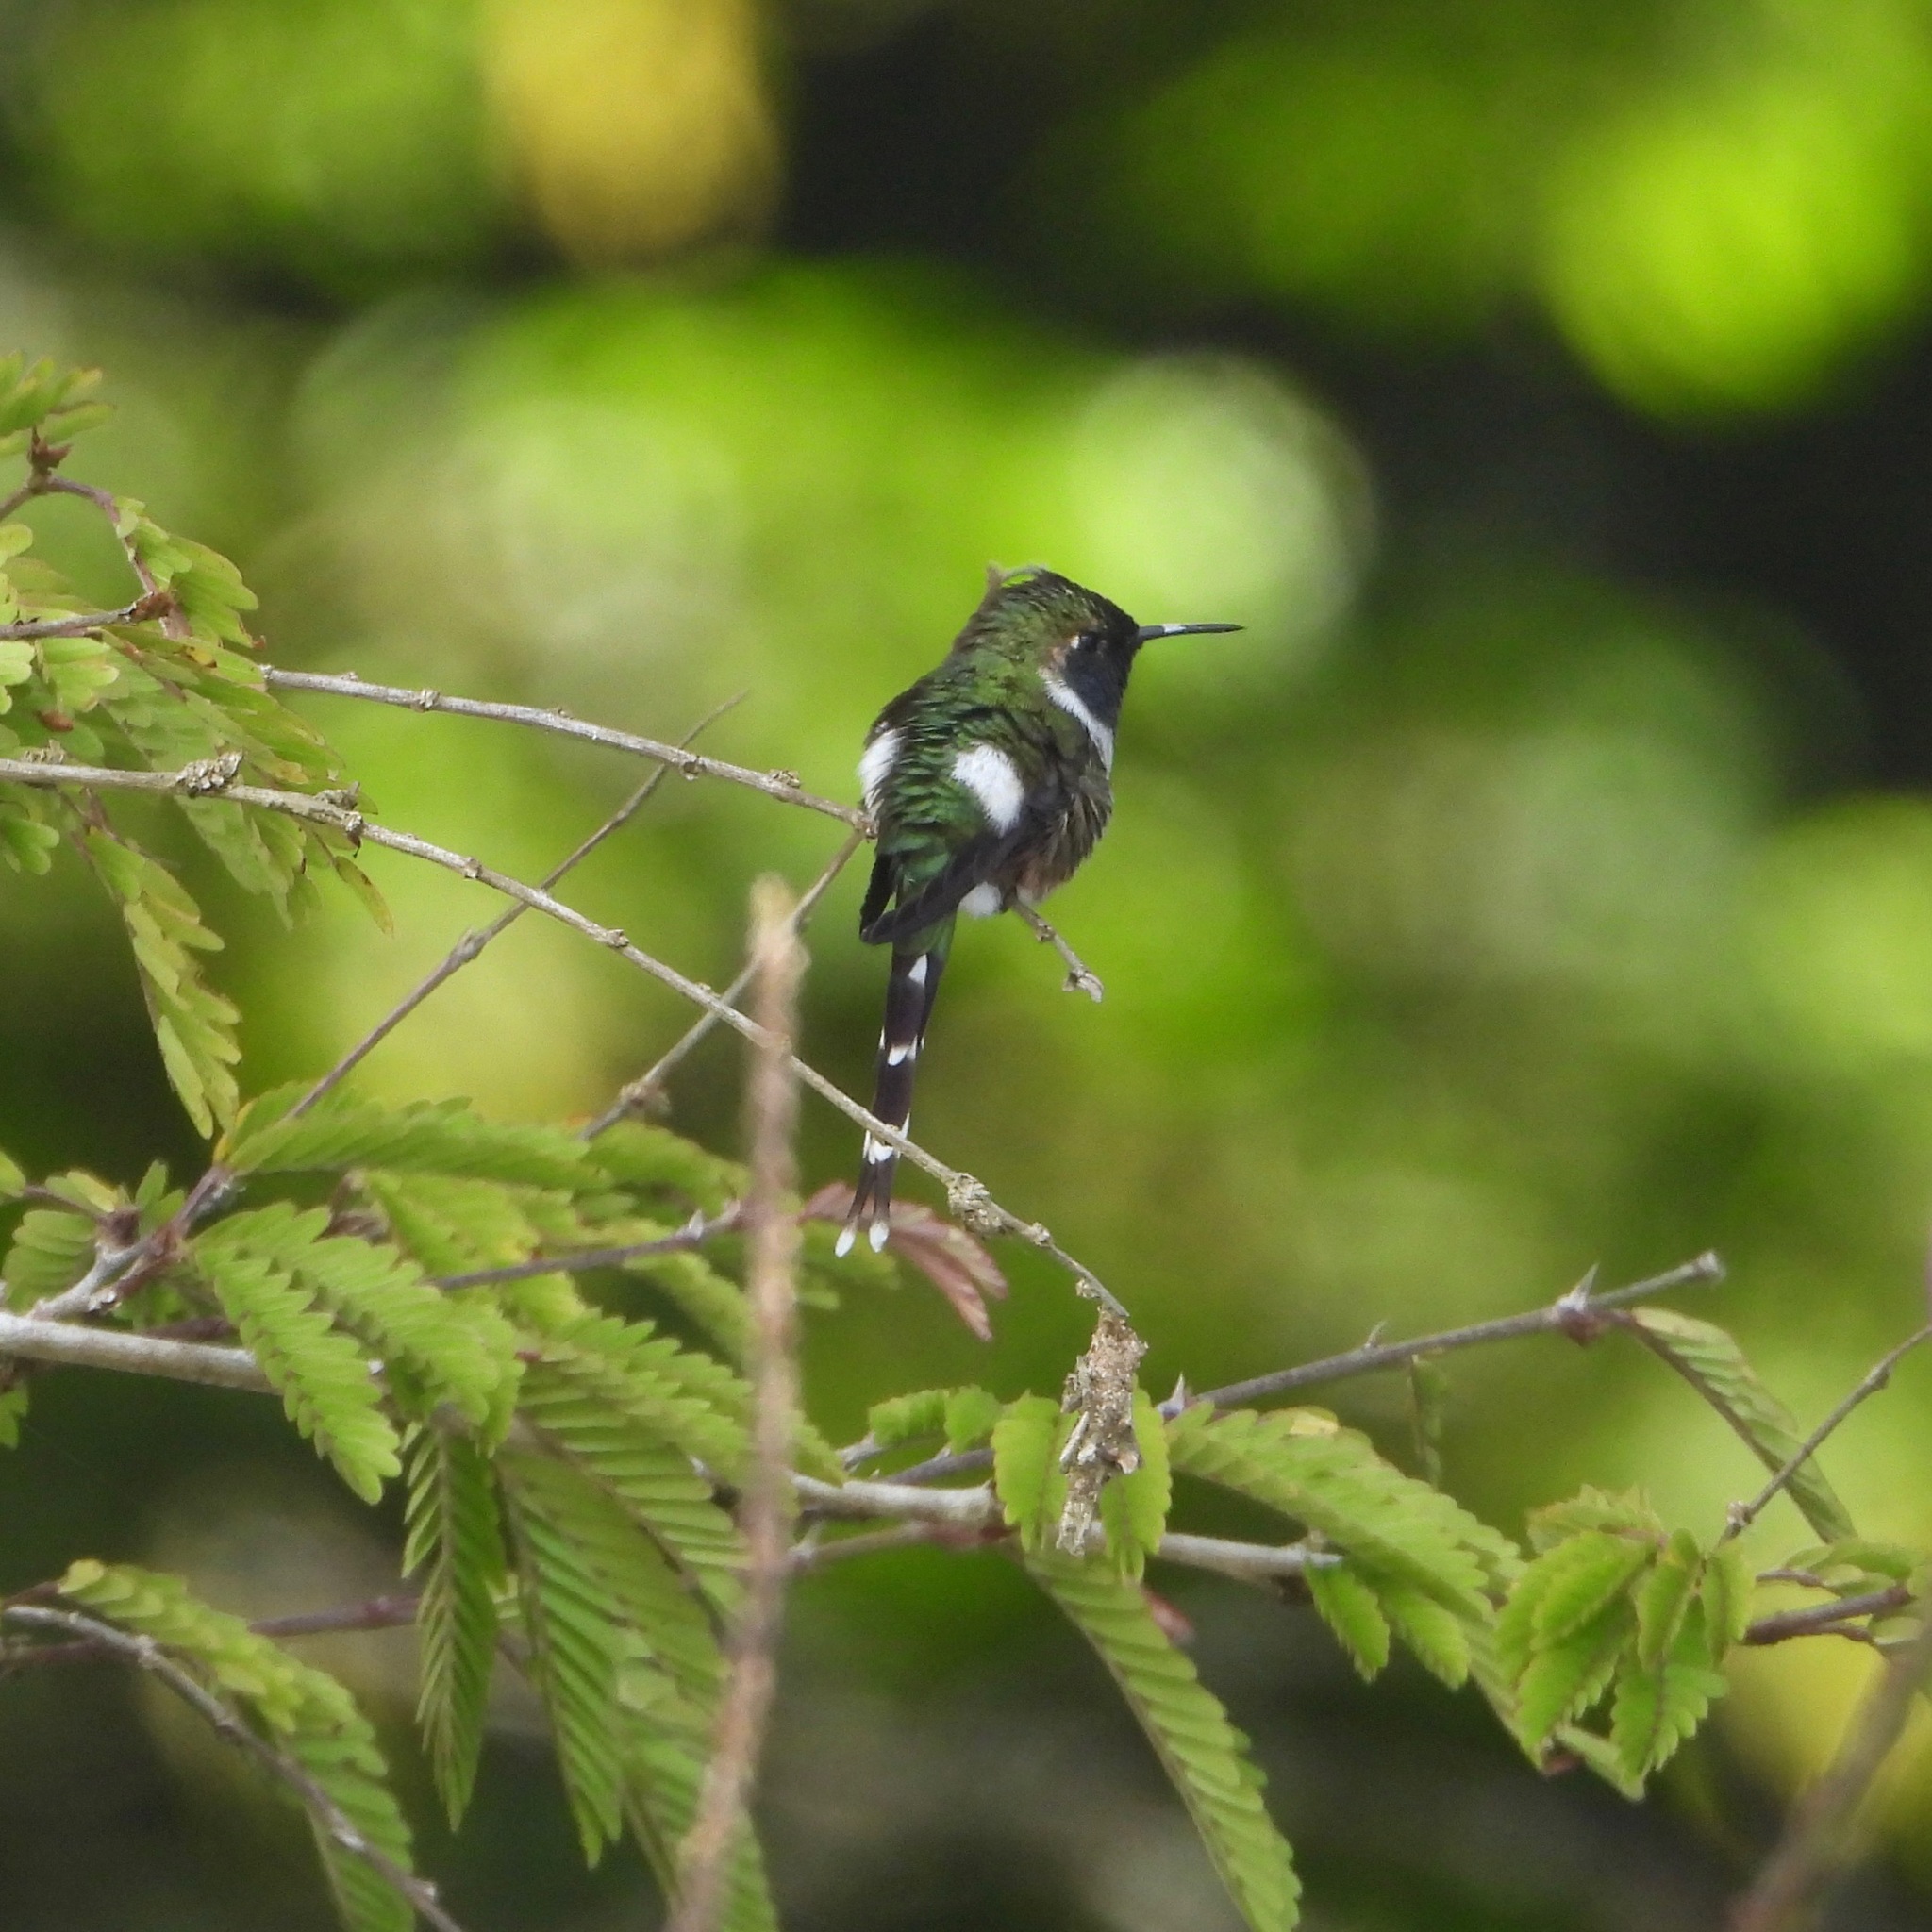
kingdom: Animalia
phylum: Chordata
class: Aves
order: Apodiformes
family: Trochilidae
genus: Tilmatura
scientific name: Tilmatura dupontii
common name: Sparkling-tailed woodstar
